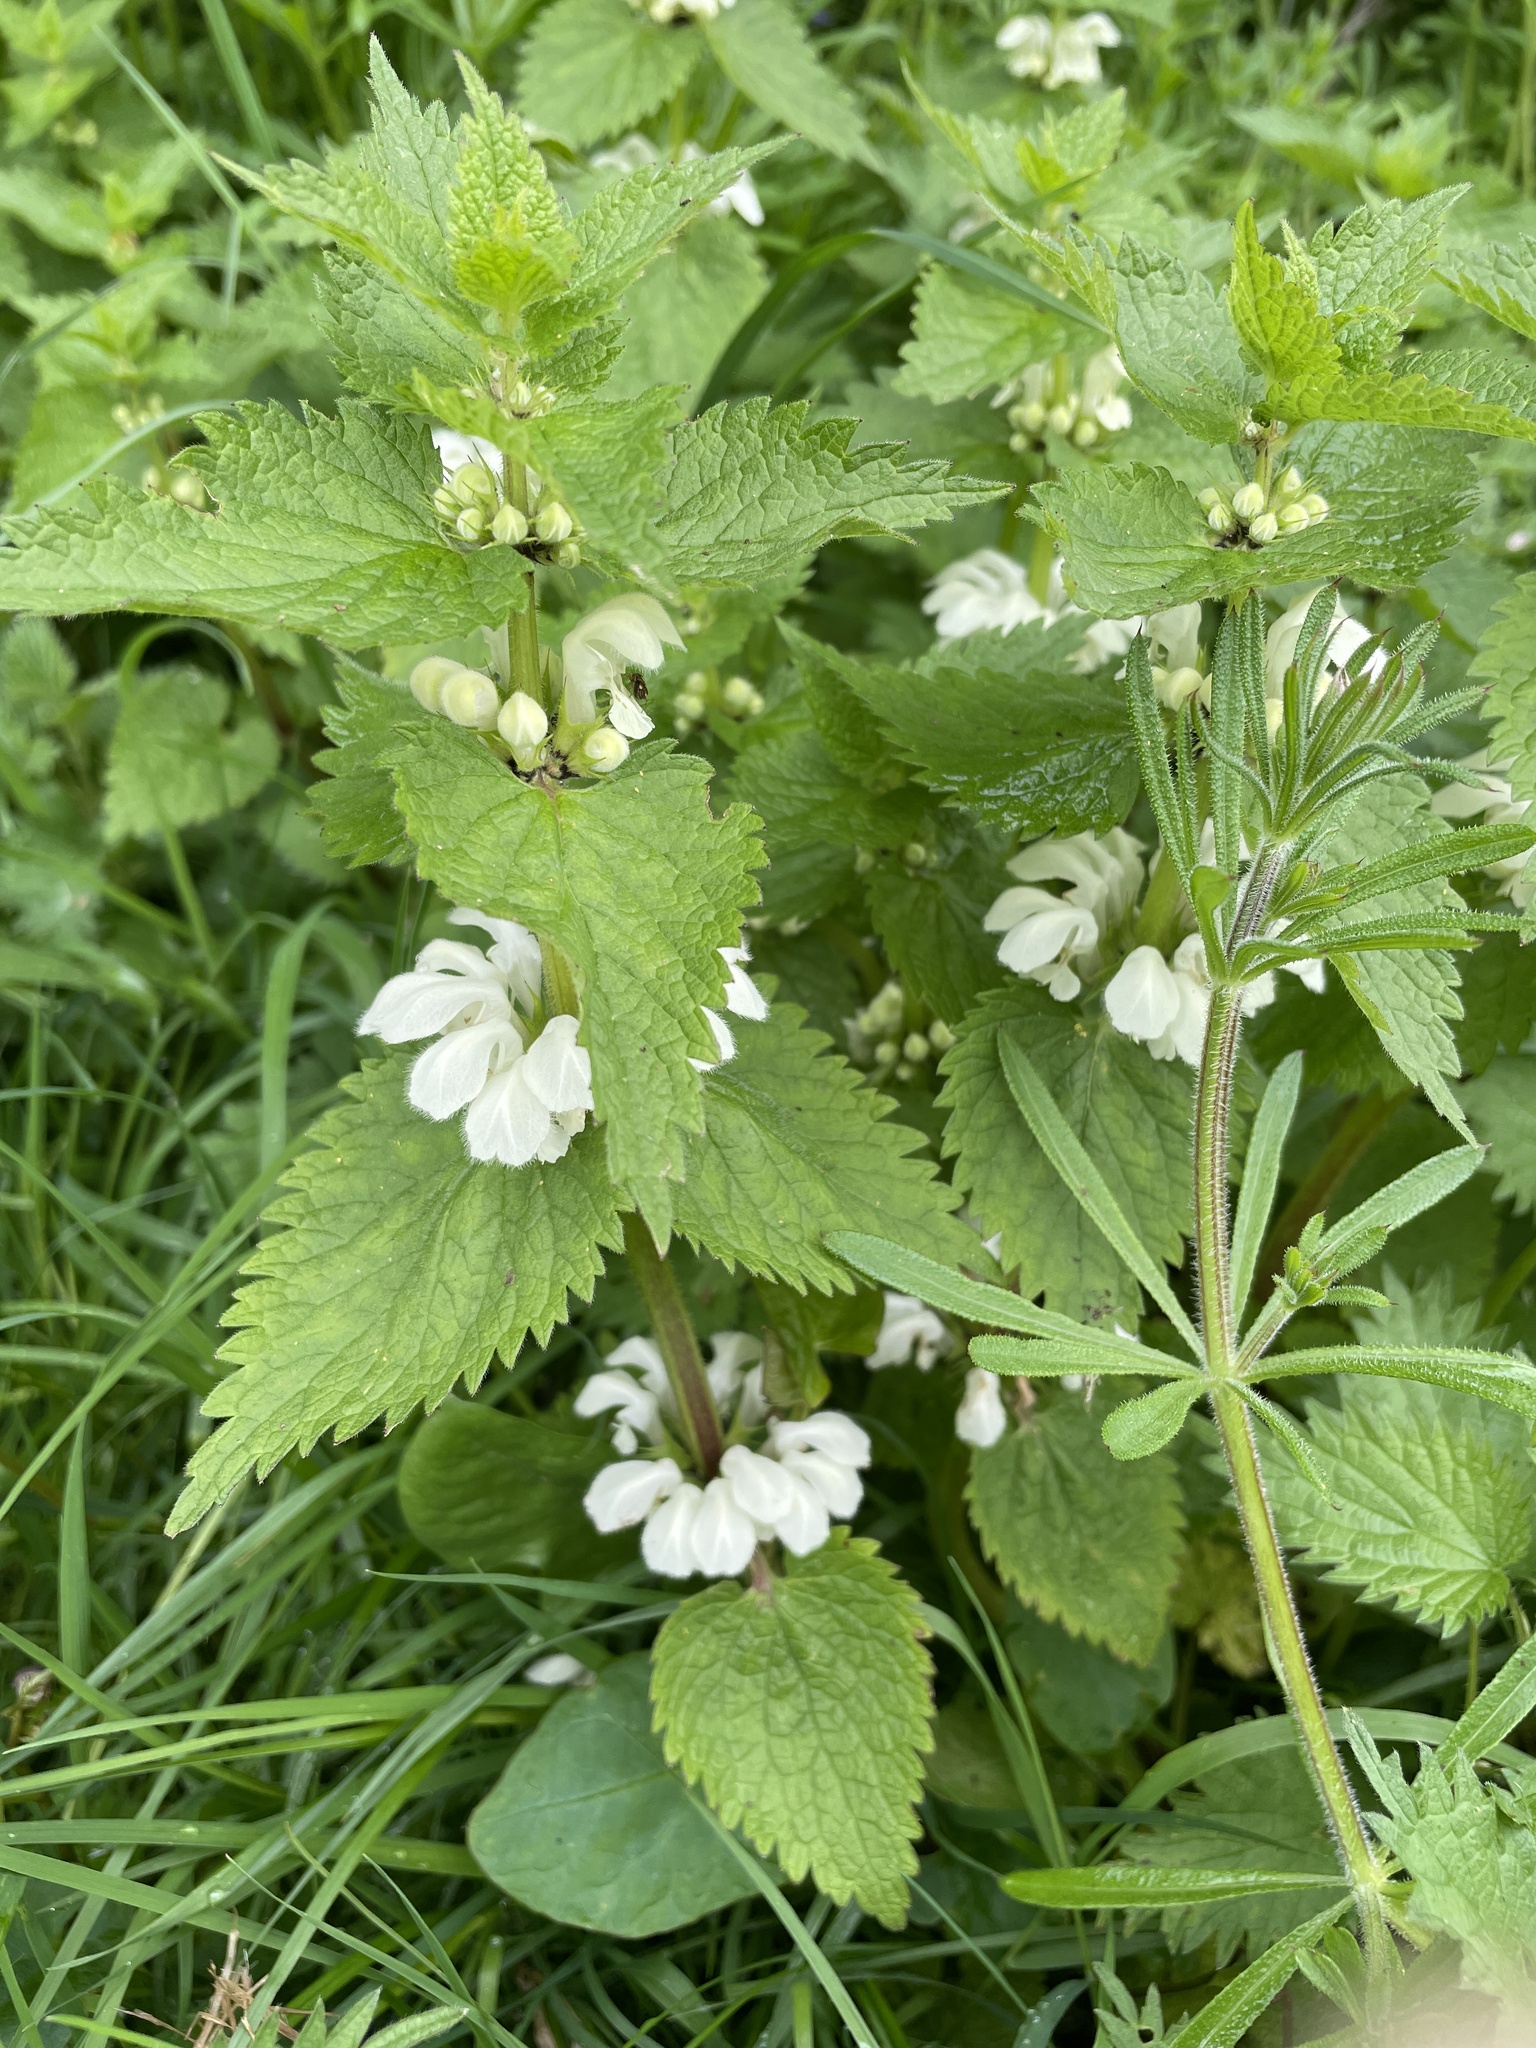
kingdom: Plantae
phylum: Tracheophyta
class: Magnoliopsida
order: Lamiales
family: Lamiaceae
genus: Lamium
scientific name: Lamium album
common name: White dead-nettle
